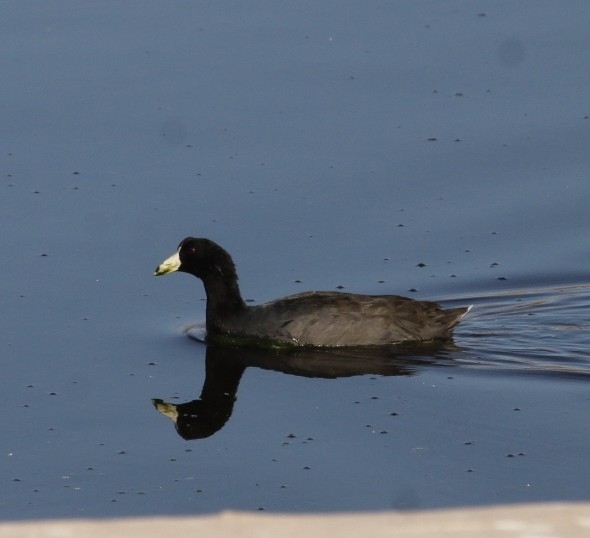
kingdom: Animalia
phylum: Chordata
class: Aves
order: Gruiformes
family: Rallidae
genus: Fulica
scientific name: Fulica americana
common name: American coot
